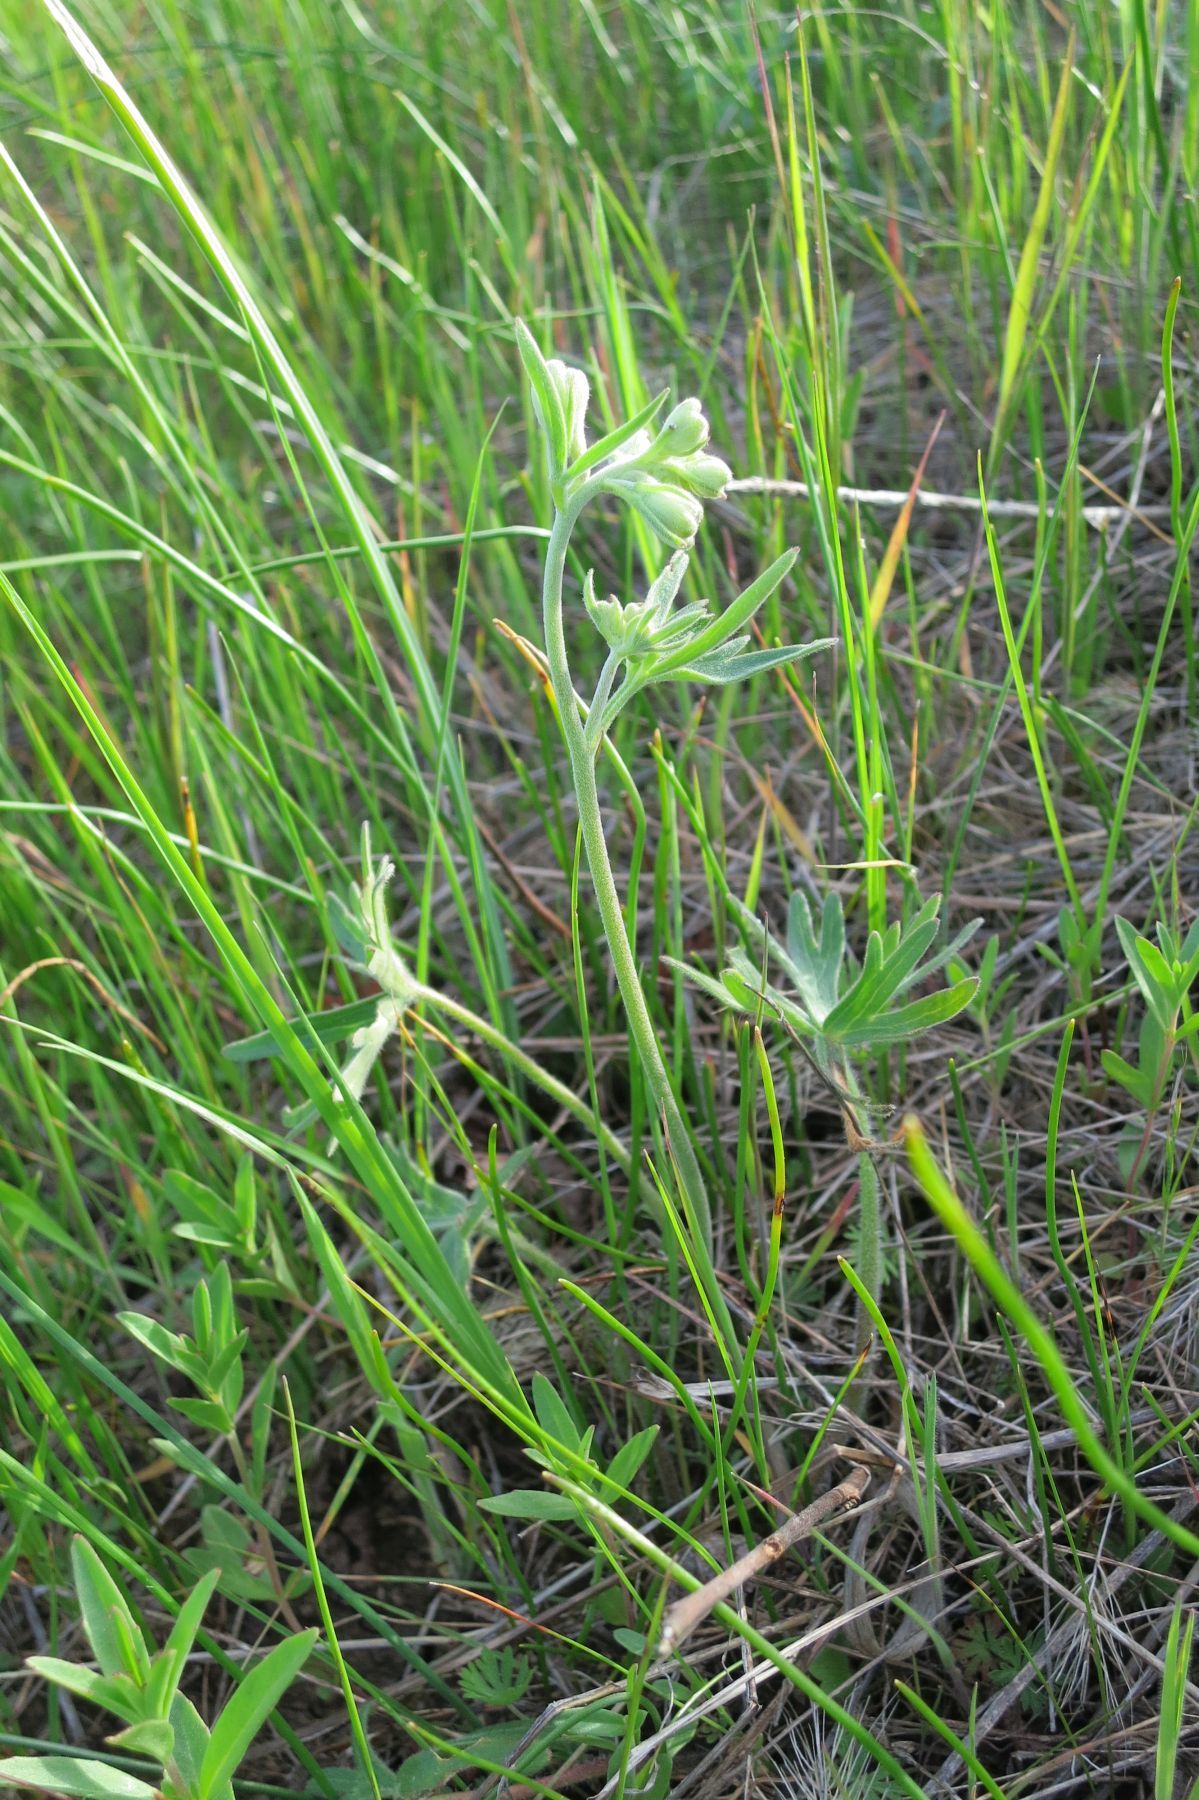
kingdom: Plantae
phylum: Tracheophyta
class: Magnoliopsida
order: Ranunculales
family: Ranunculaceae
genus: Delphinium
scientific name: Delphinium menziesii
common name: Menzies's larkspur
